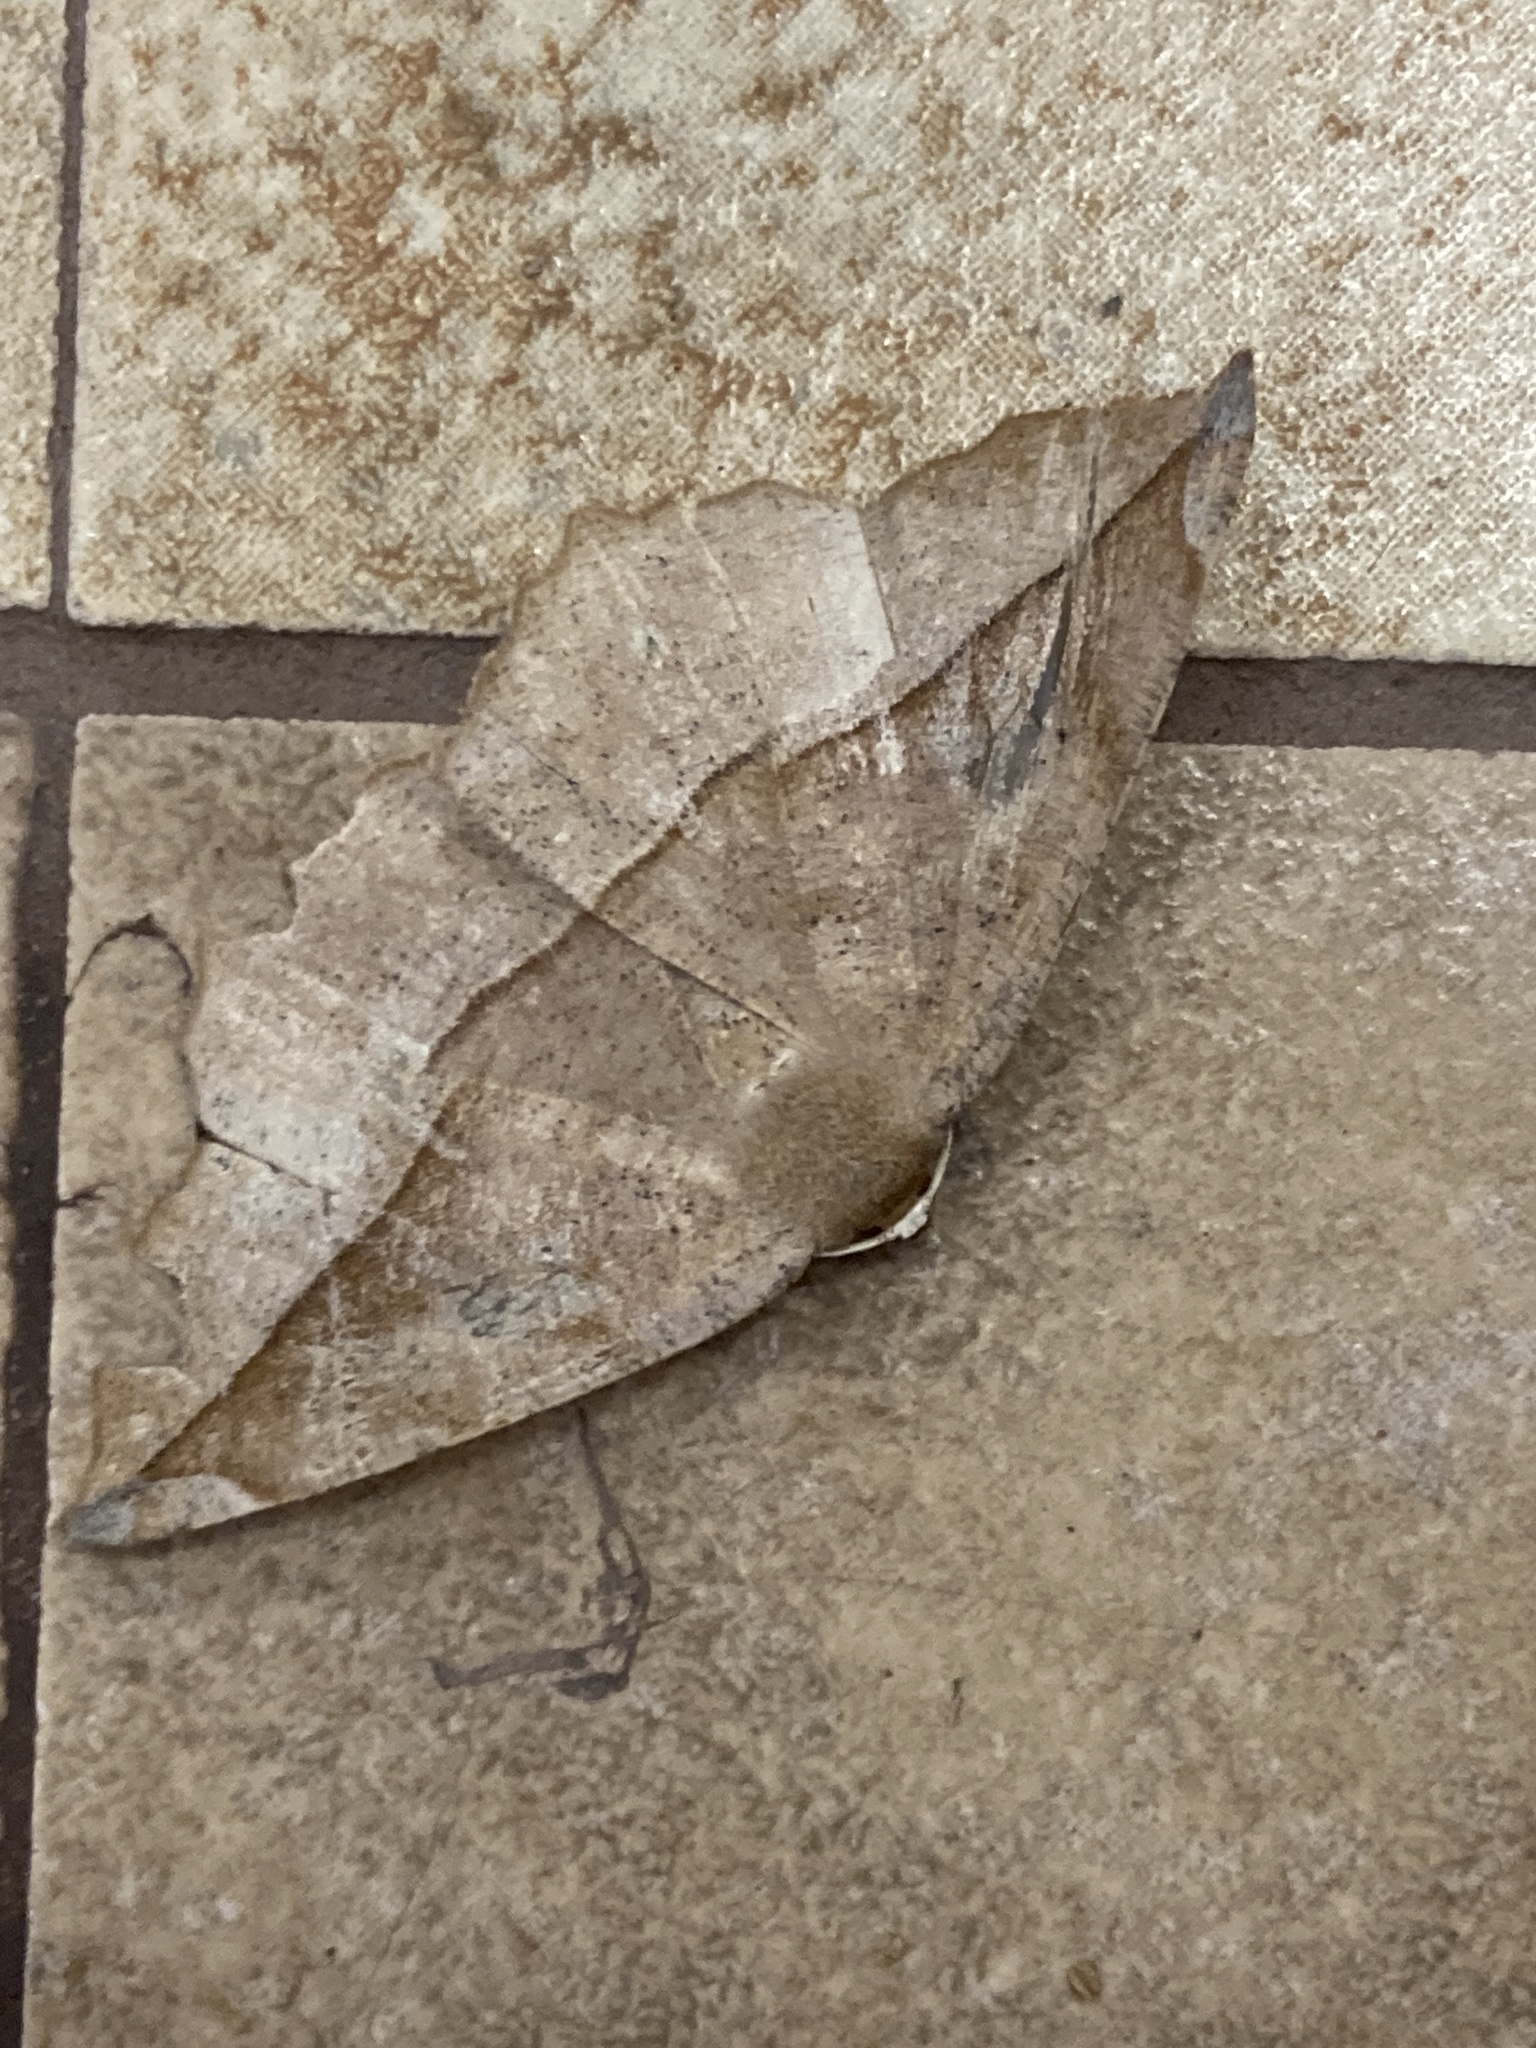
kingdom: Animalia
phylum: Arthropoda
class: Insecta
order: Lepidoptera
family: Geometridae
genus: Eutrapela
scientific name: Eutrapela clemataria
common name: Curved-toothed geometer
